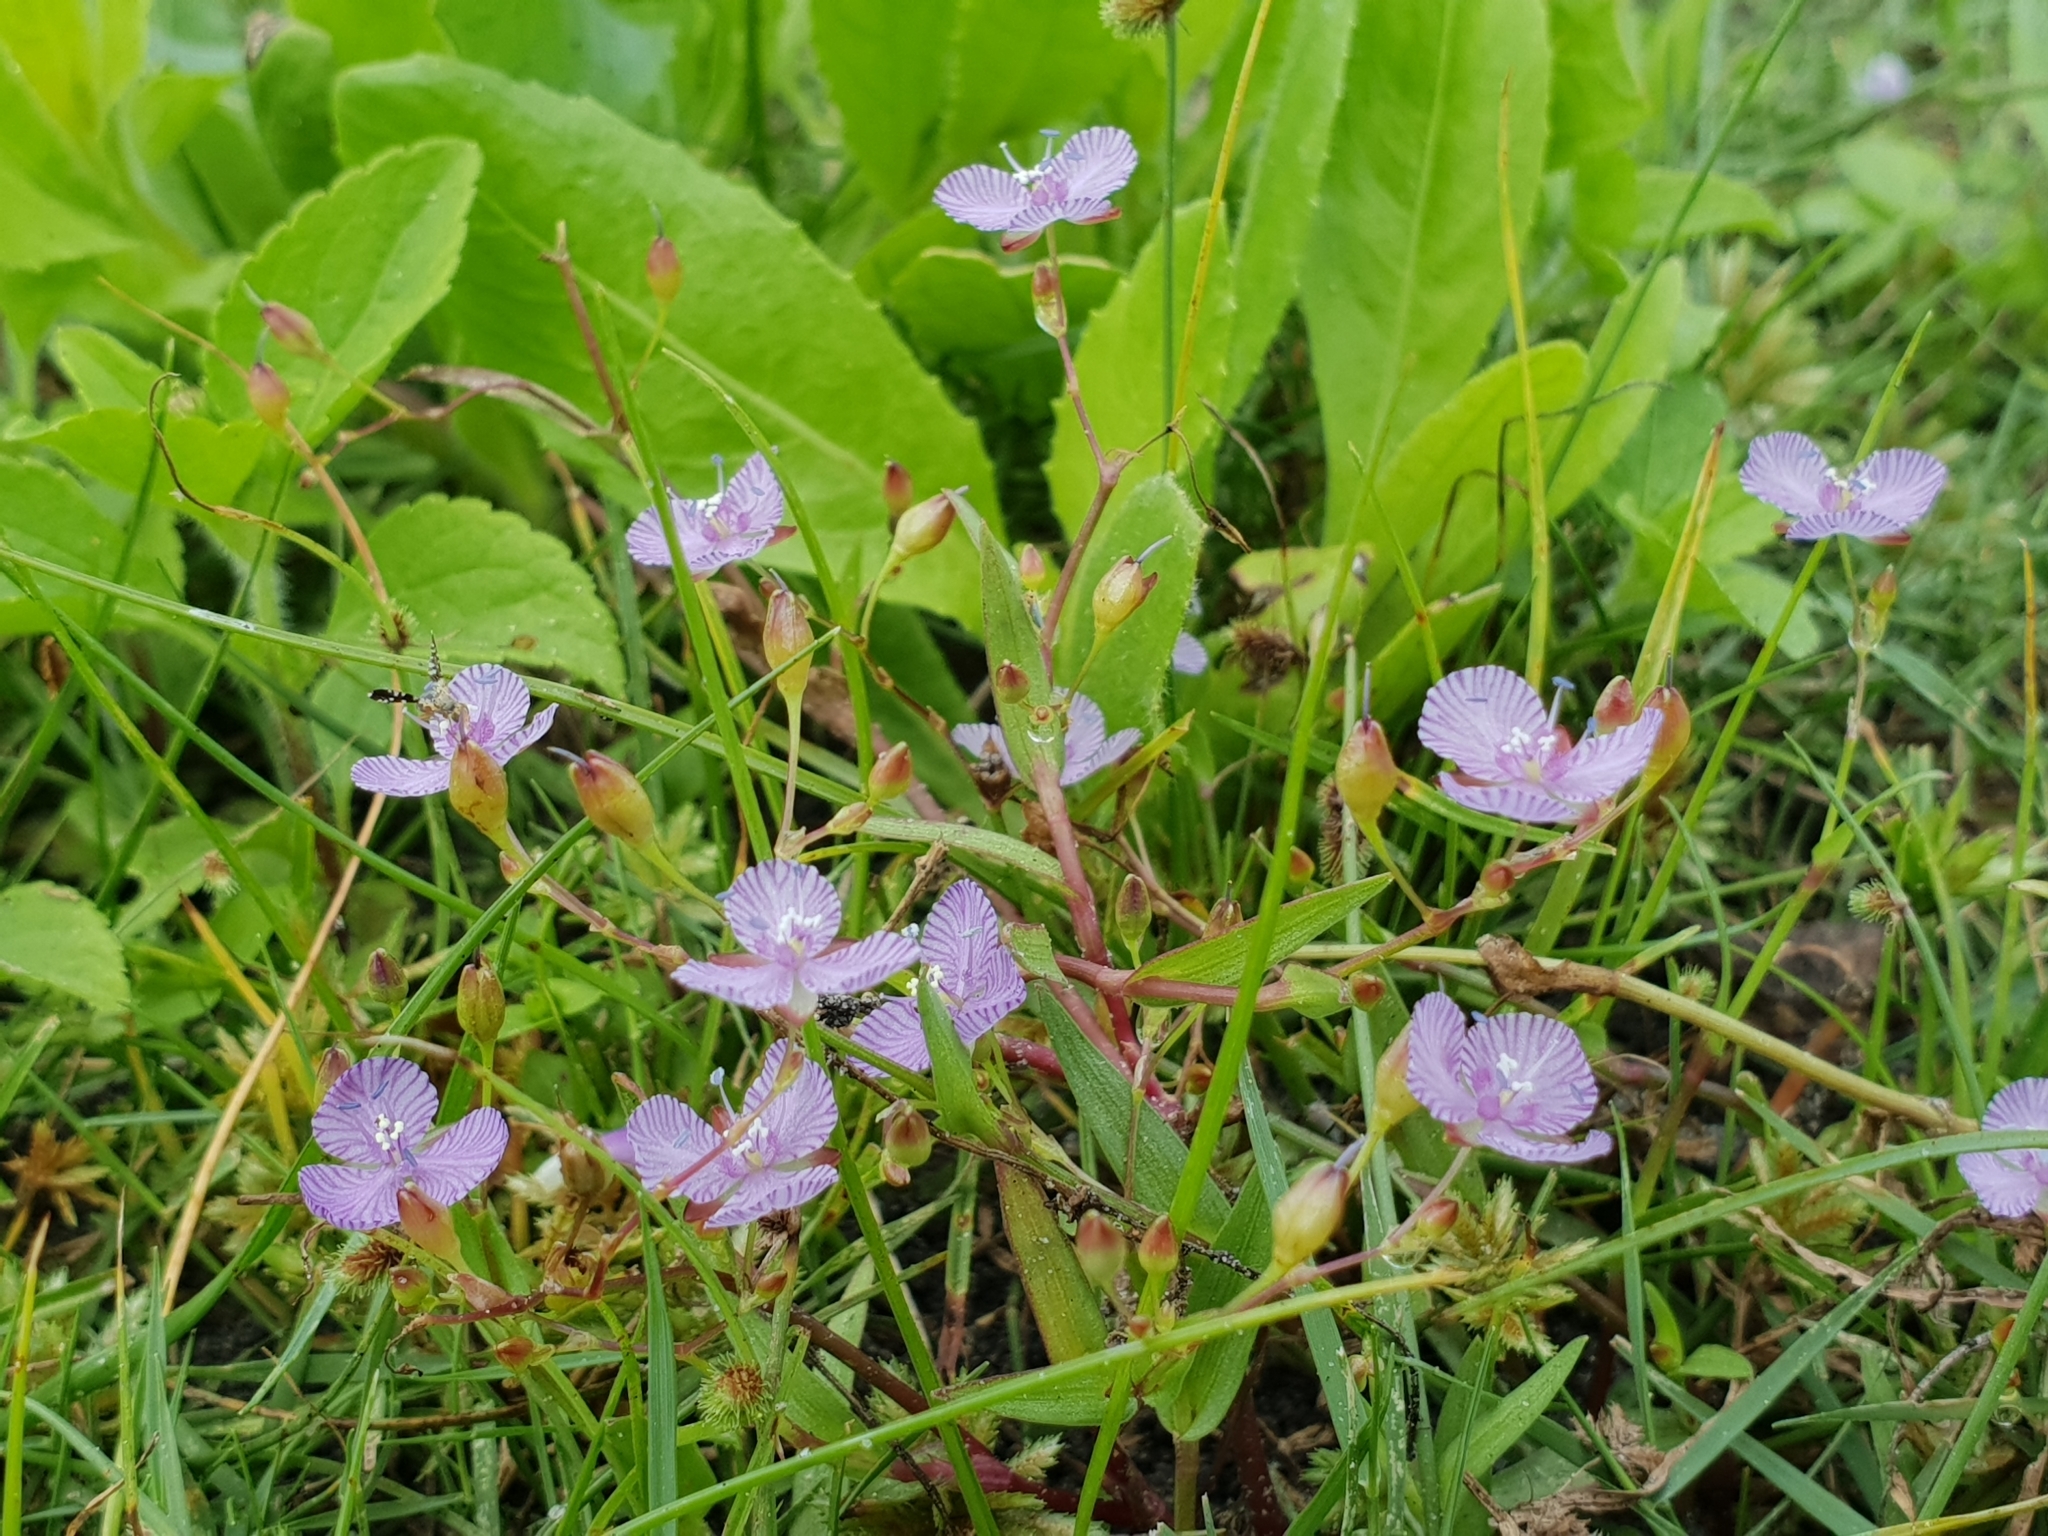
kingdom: Plantae
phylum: Tracheophyta
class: Liliopsida
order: Commelinales
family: Commelinaceae
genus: Murdannia
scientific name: Murdannia striatipetala
